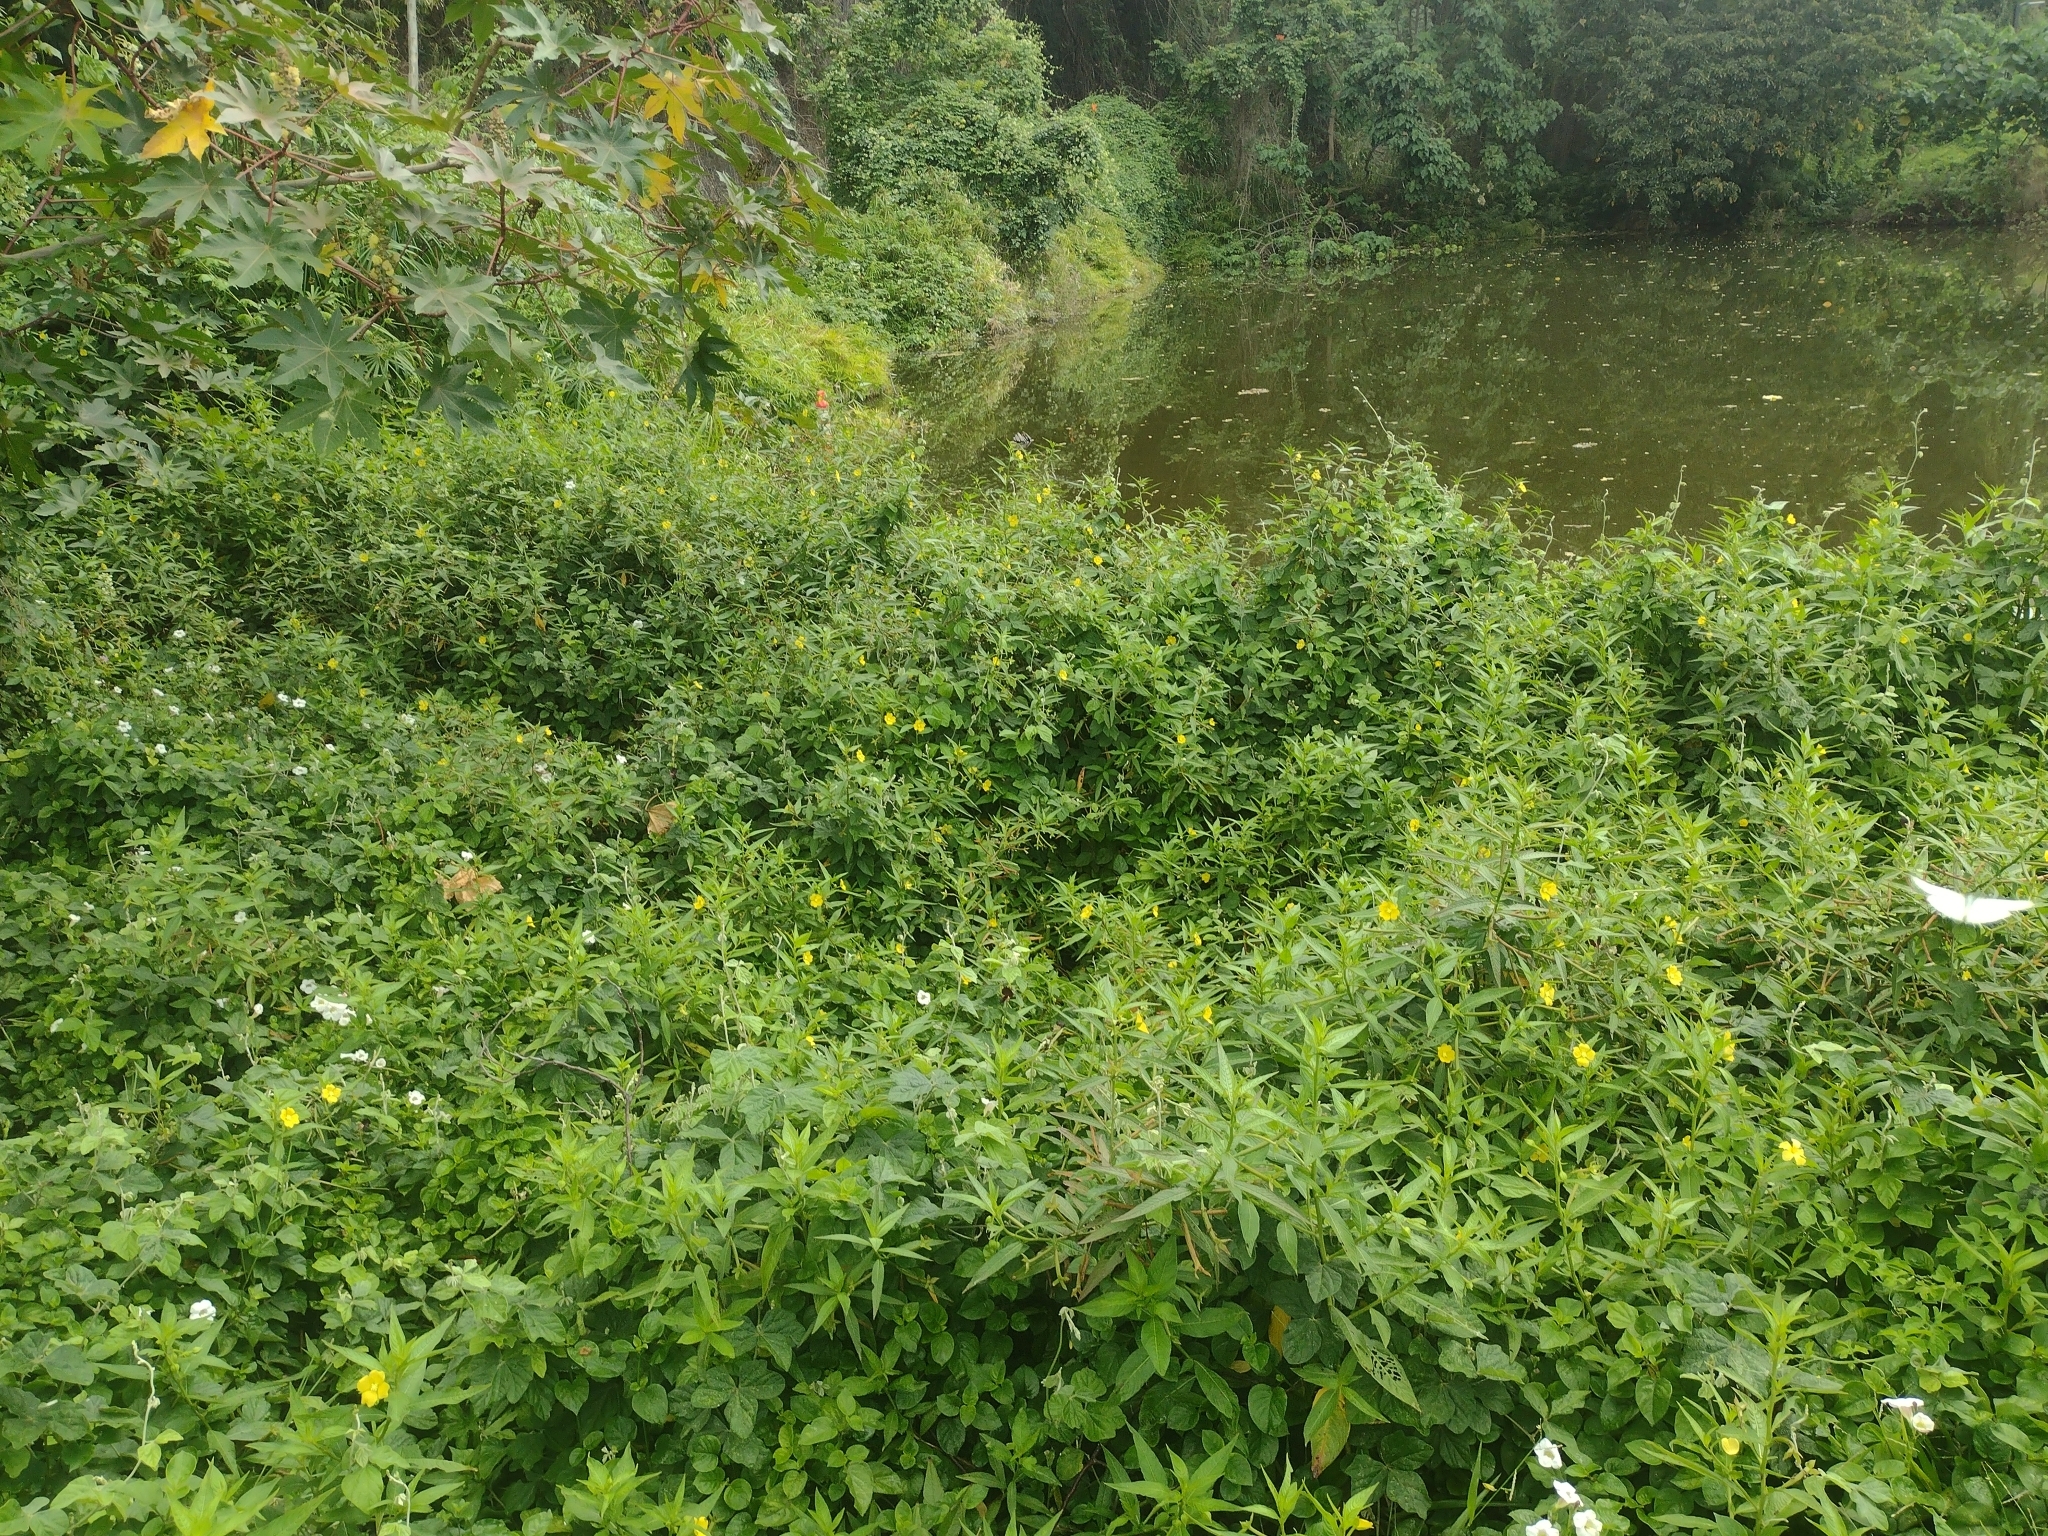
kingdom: Plantae
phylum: Tracheophyta
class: Magnoliopsida
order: Myrtales
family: Onagraceae
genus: Ludwigia
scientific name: Ludwigia octovalvis
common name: Water-primrose
